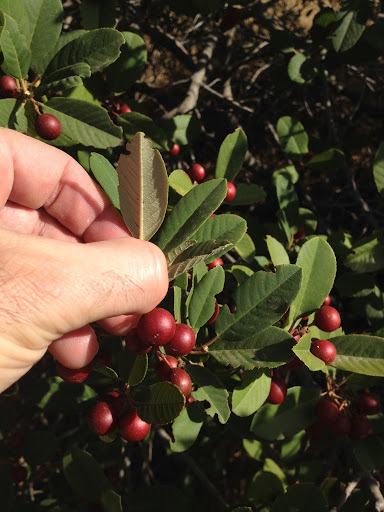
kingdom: Plantae
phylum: Tracheophyta
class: Magnoliopsida
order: Rosales
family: Rhamnaceae
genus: Frangula
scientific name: Frangula californica
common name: California buckthorn
